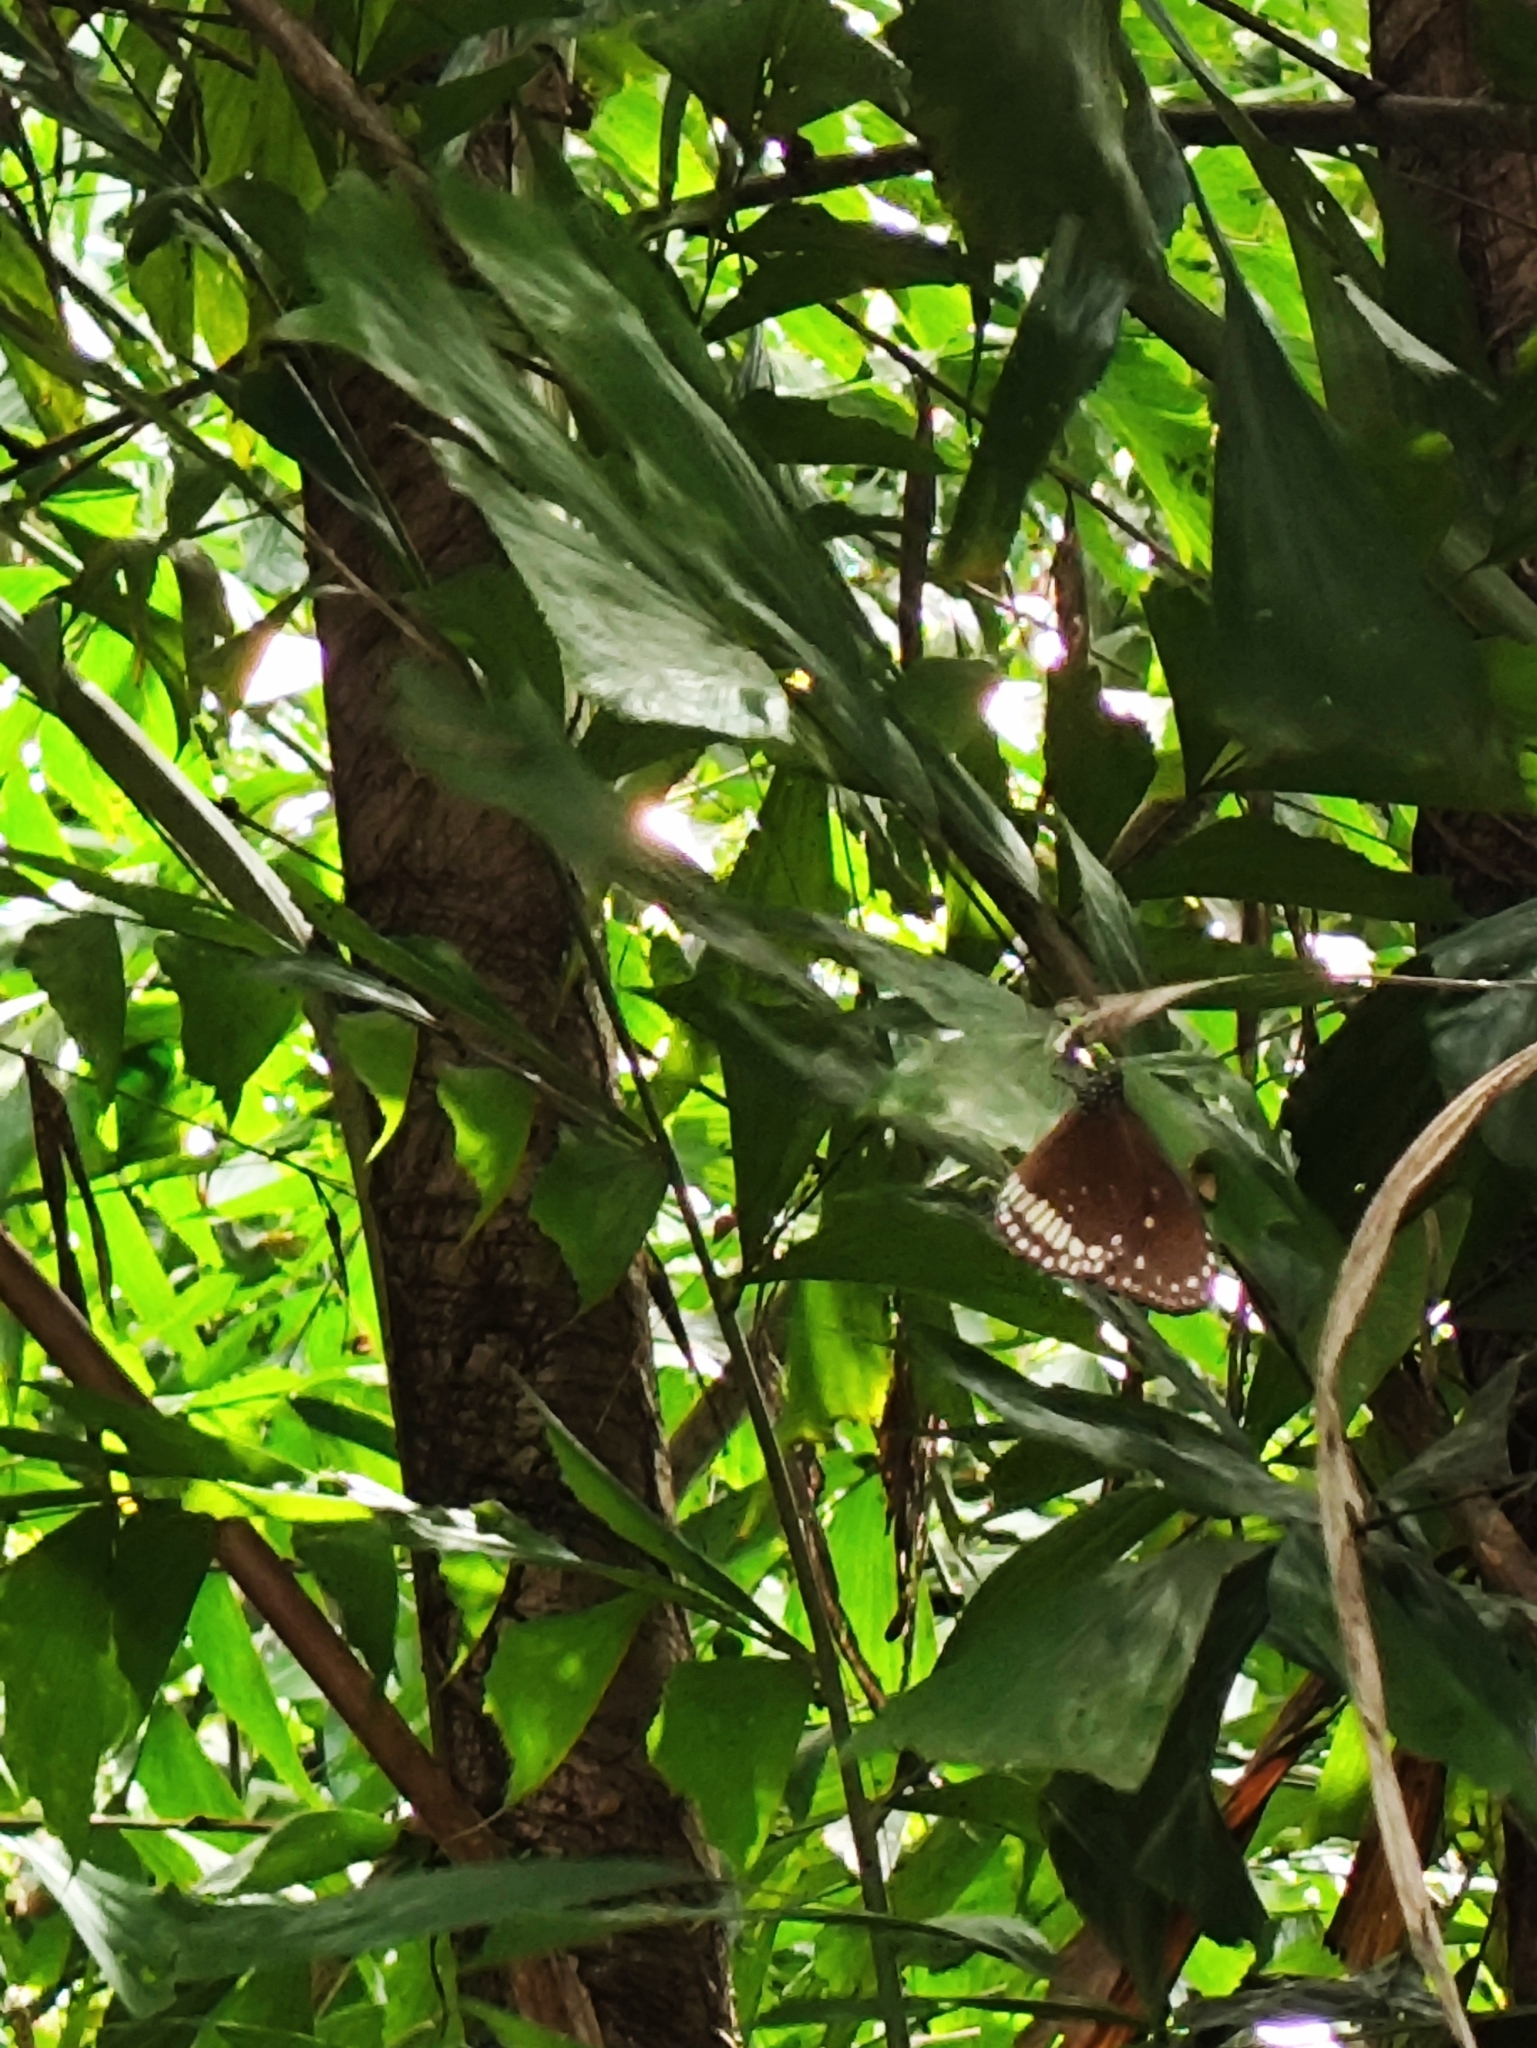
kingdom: Animalia
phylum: Arthropoda
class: Insecta
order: Lepidoptera
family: Nymphalidae
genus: Euploea
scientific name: Euploea core
